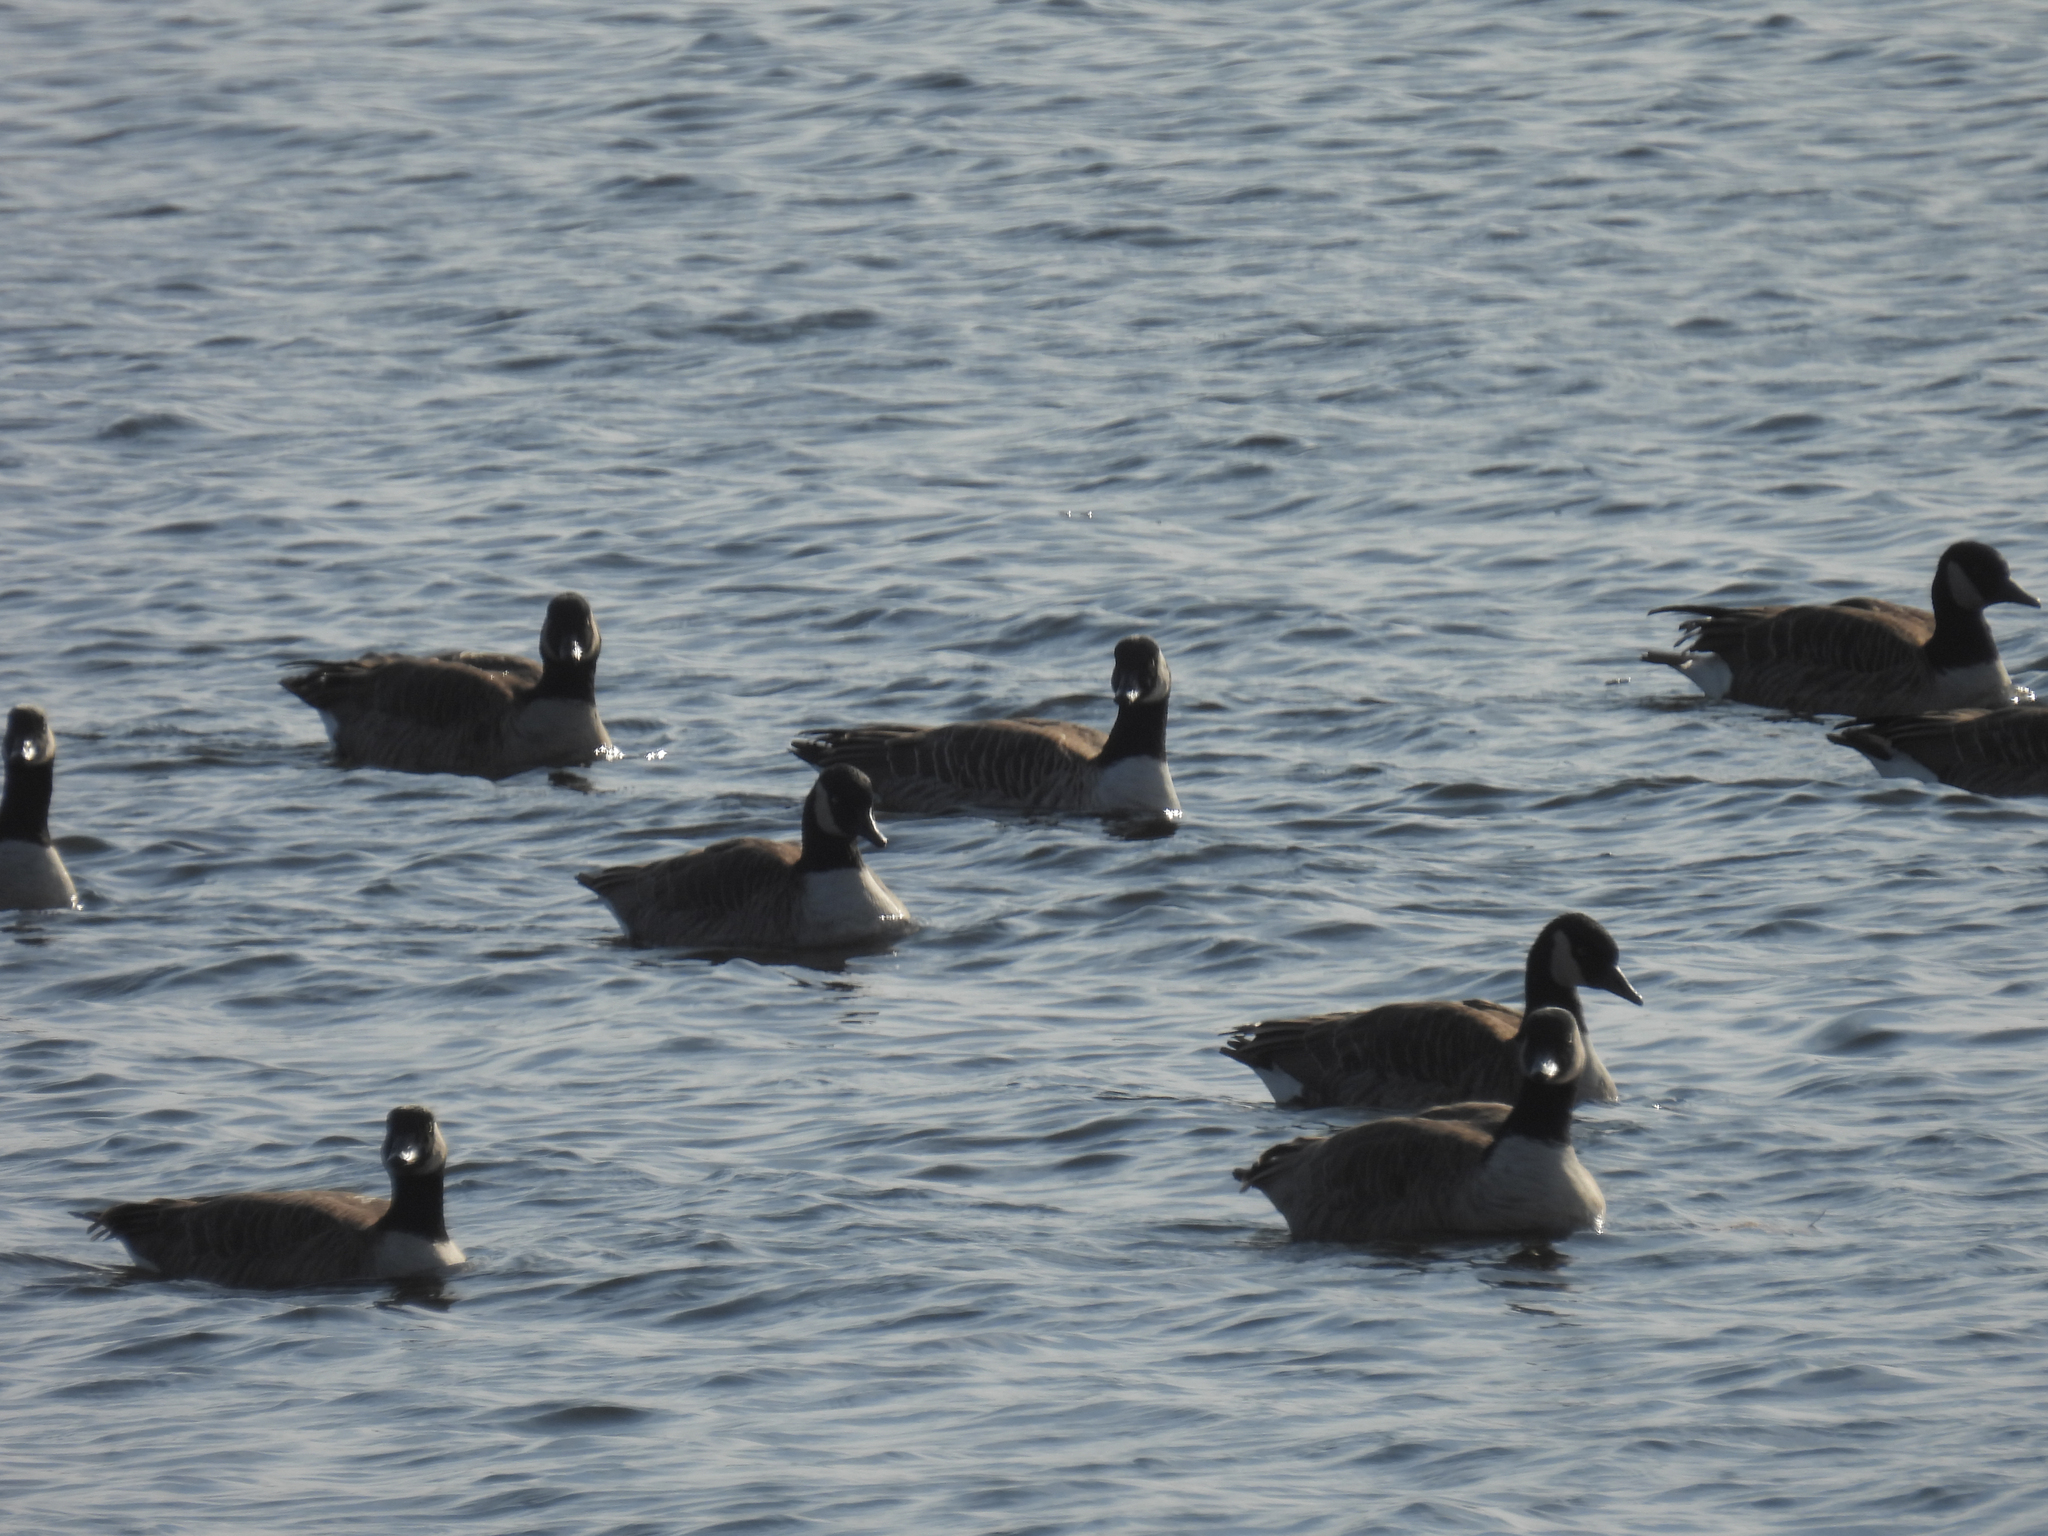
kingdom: Animalia
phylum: Chordata
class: Aves
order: Anseriformes
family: Anatidae
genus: Branta
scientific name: Branta canadensis
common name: Canada goose
